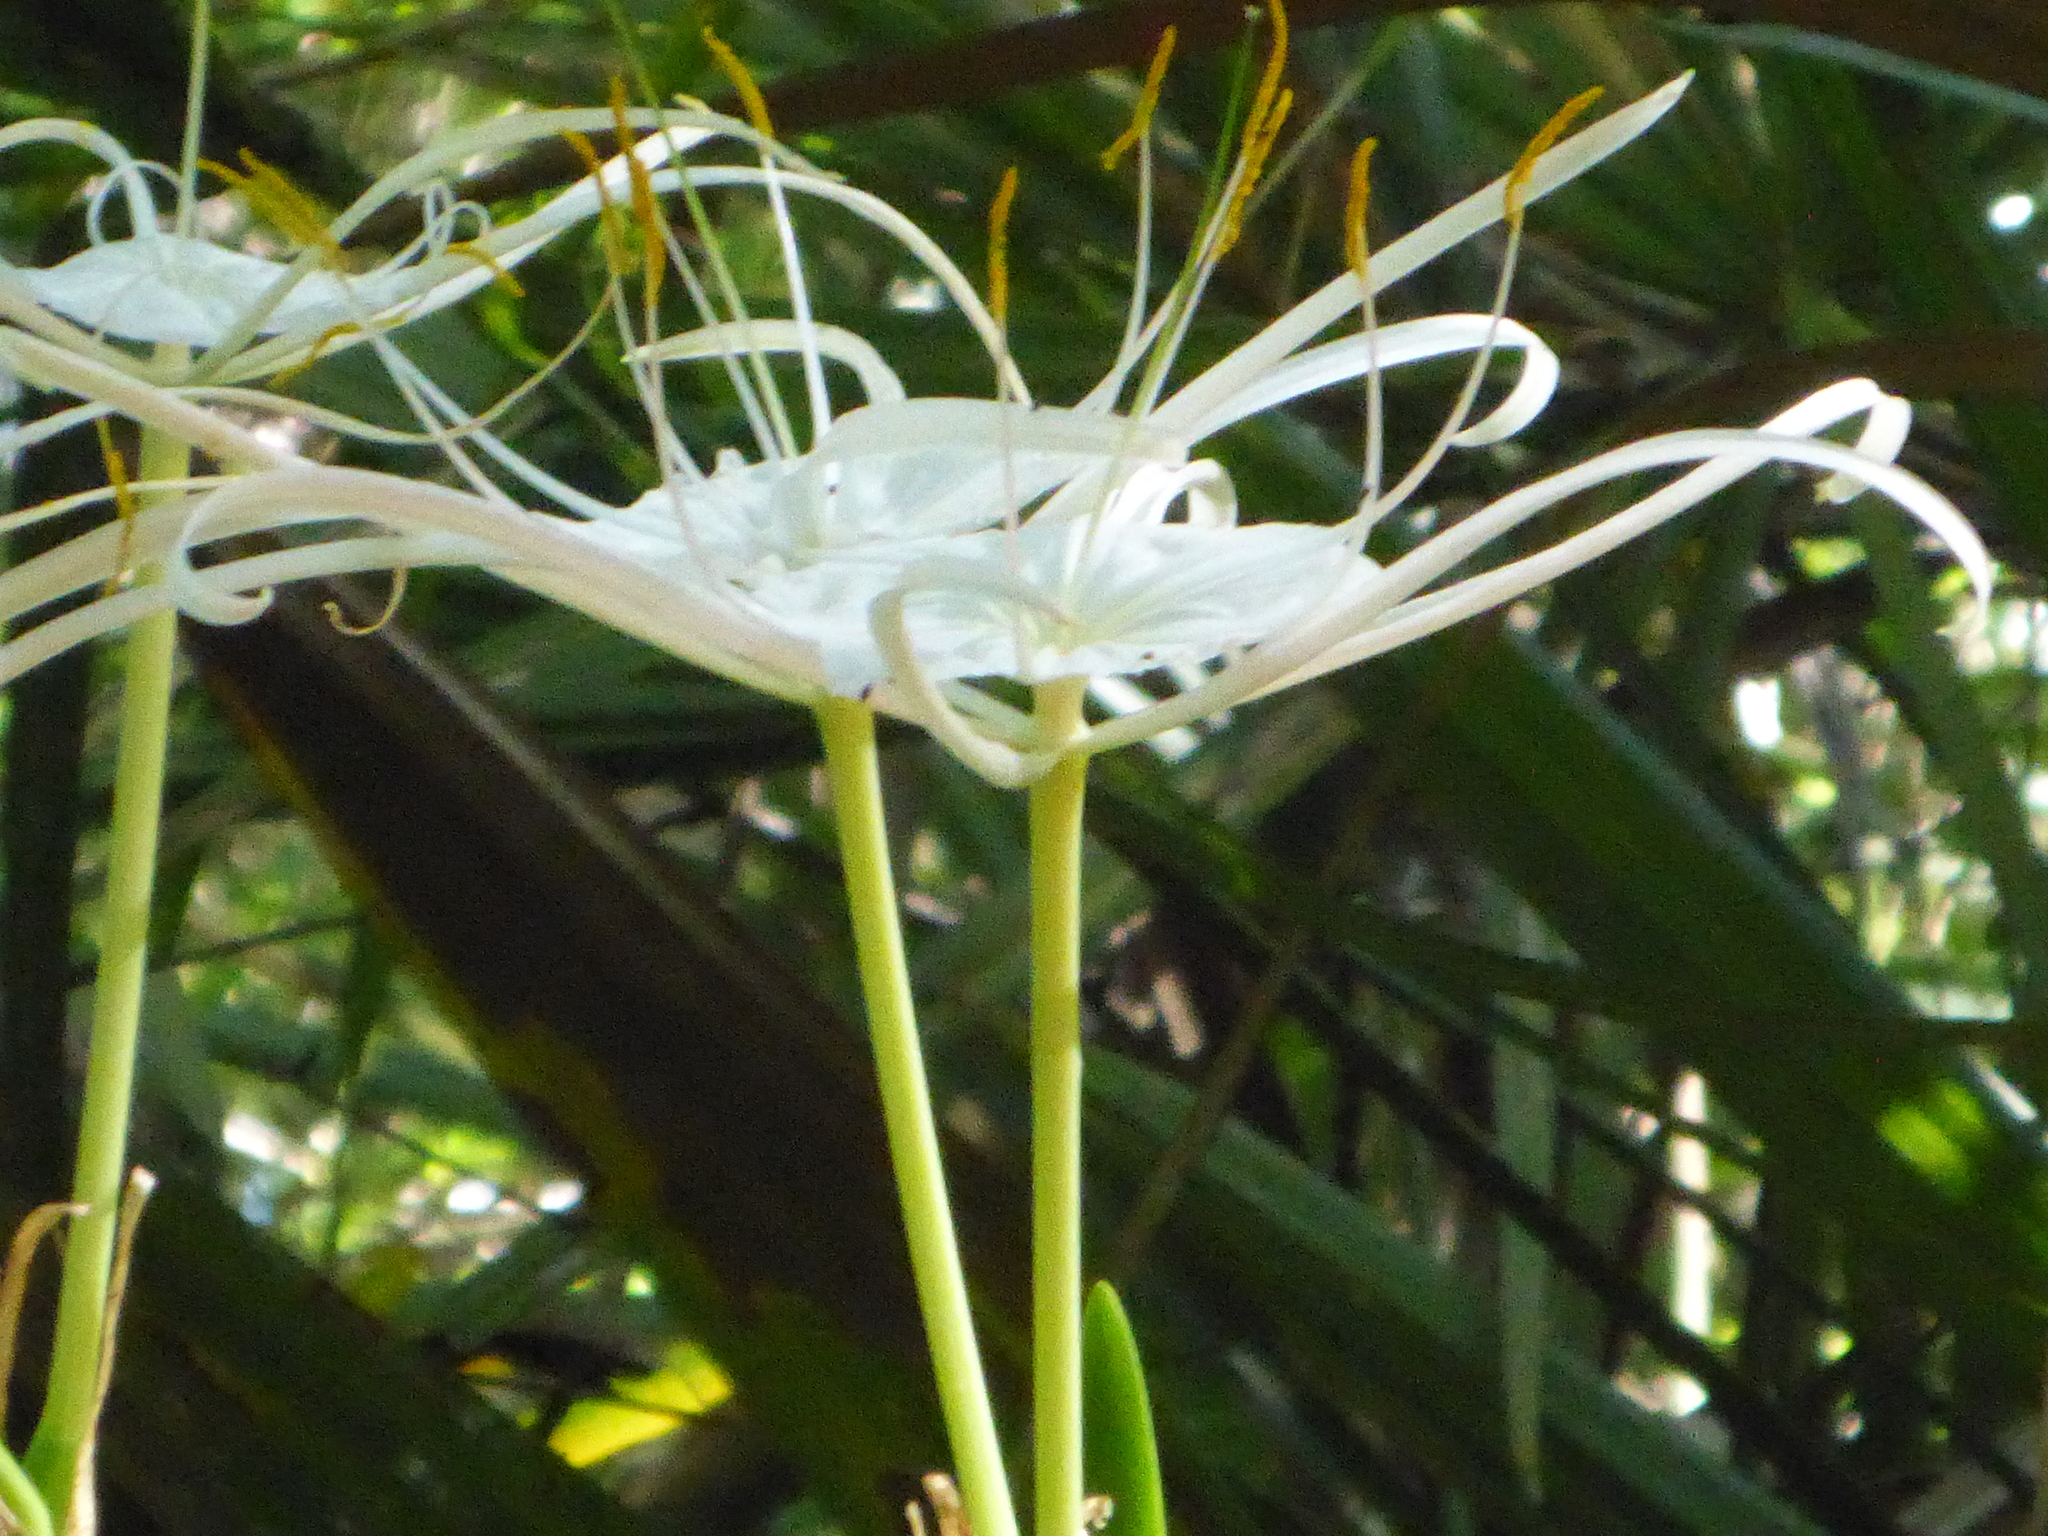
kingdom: Plantae
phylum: Tracheophyta
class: Liliopsida
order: Asparagales
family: Amaryllidaceae
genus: Hymenocallis
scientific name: Hymenocallis franklinensis
